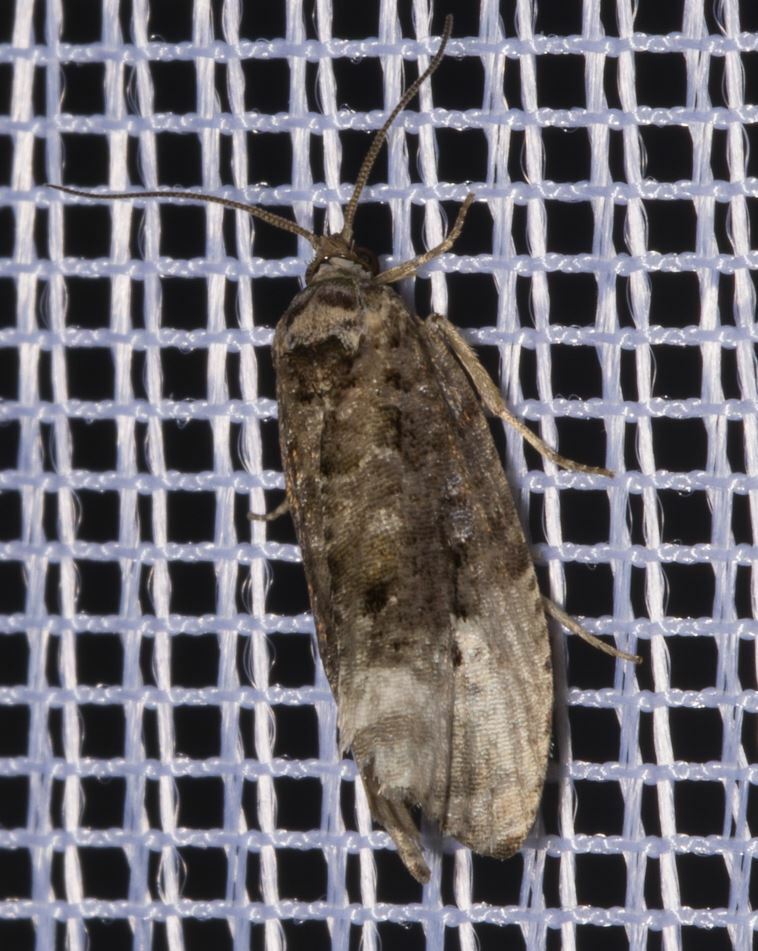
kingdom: Animalia
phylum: Arthropoda
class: Insecta
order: Lepidoptera
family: Tortricidae
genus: Hedya
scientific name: Hedya nubiferana
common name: Marbled orchard tortrix
